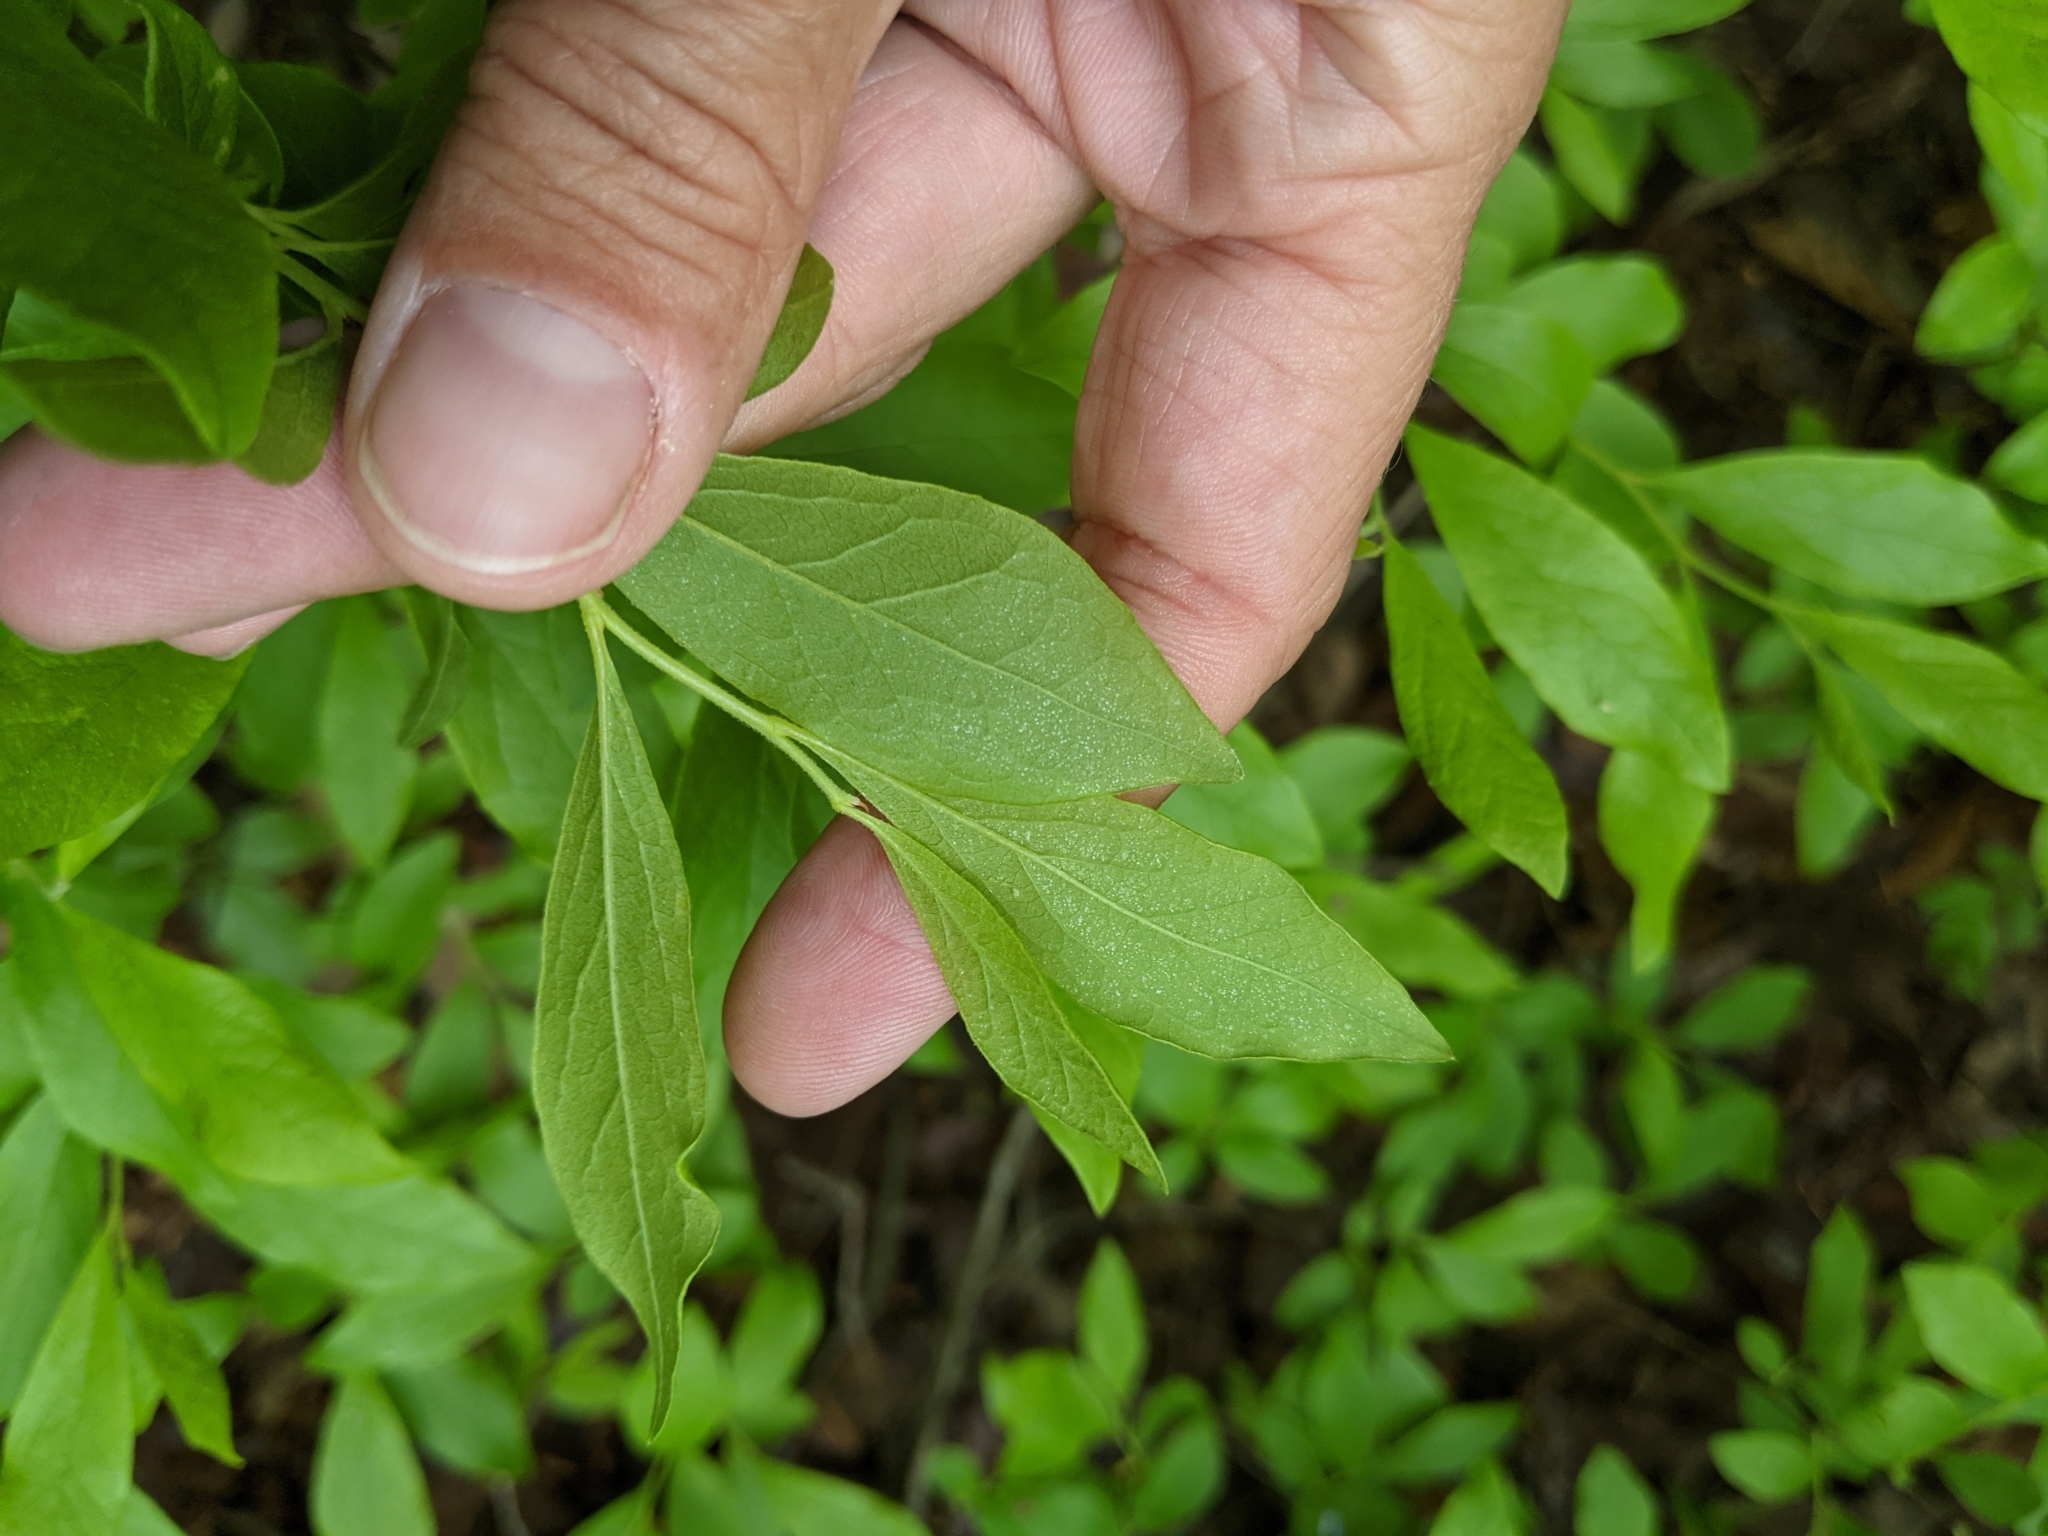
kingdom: Plantae
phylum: Tracheophyta
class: Magnoliopsida
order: Ericales
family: Ericaceae
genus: Gaylussacia
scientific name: Gaylussacia baccata
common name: Black huckleberry
